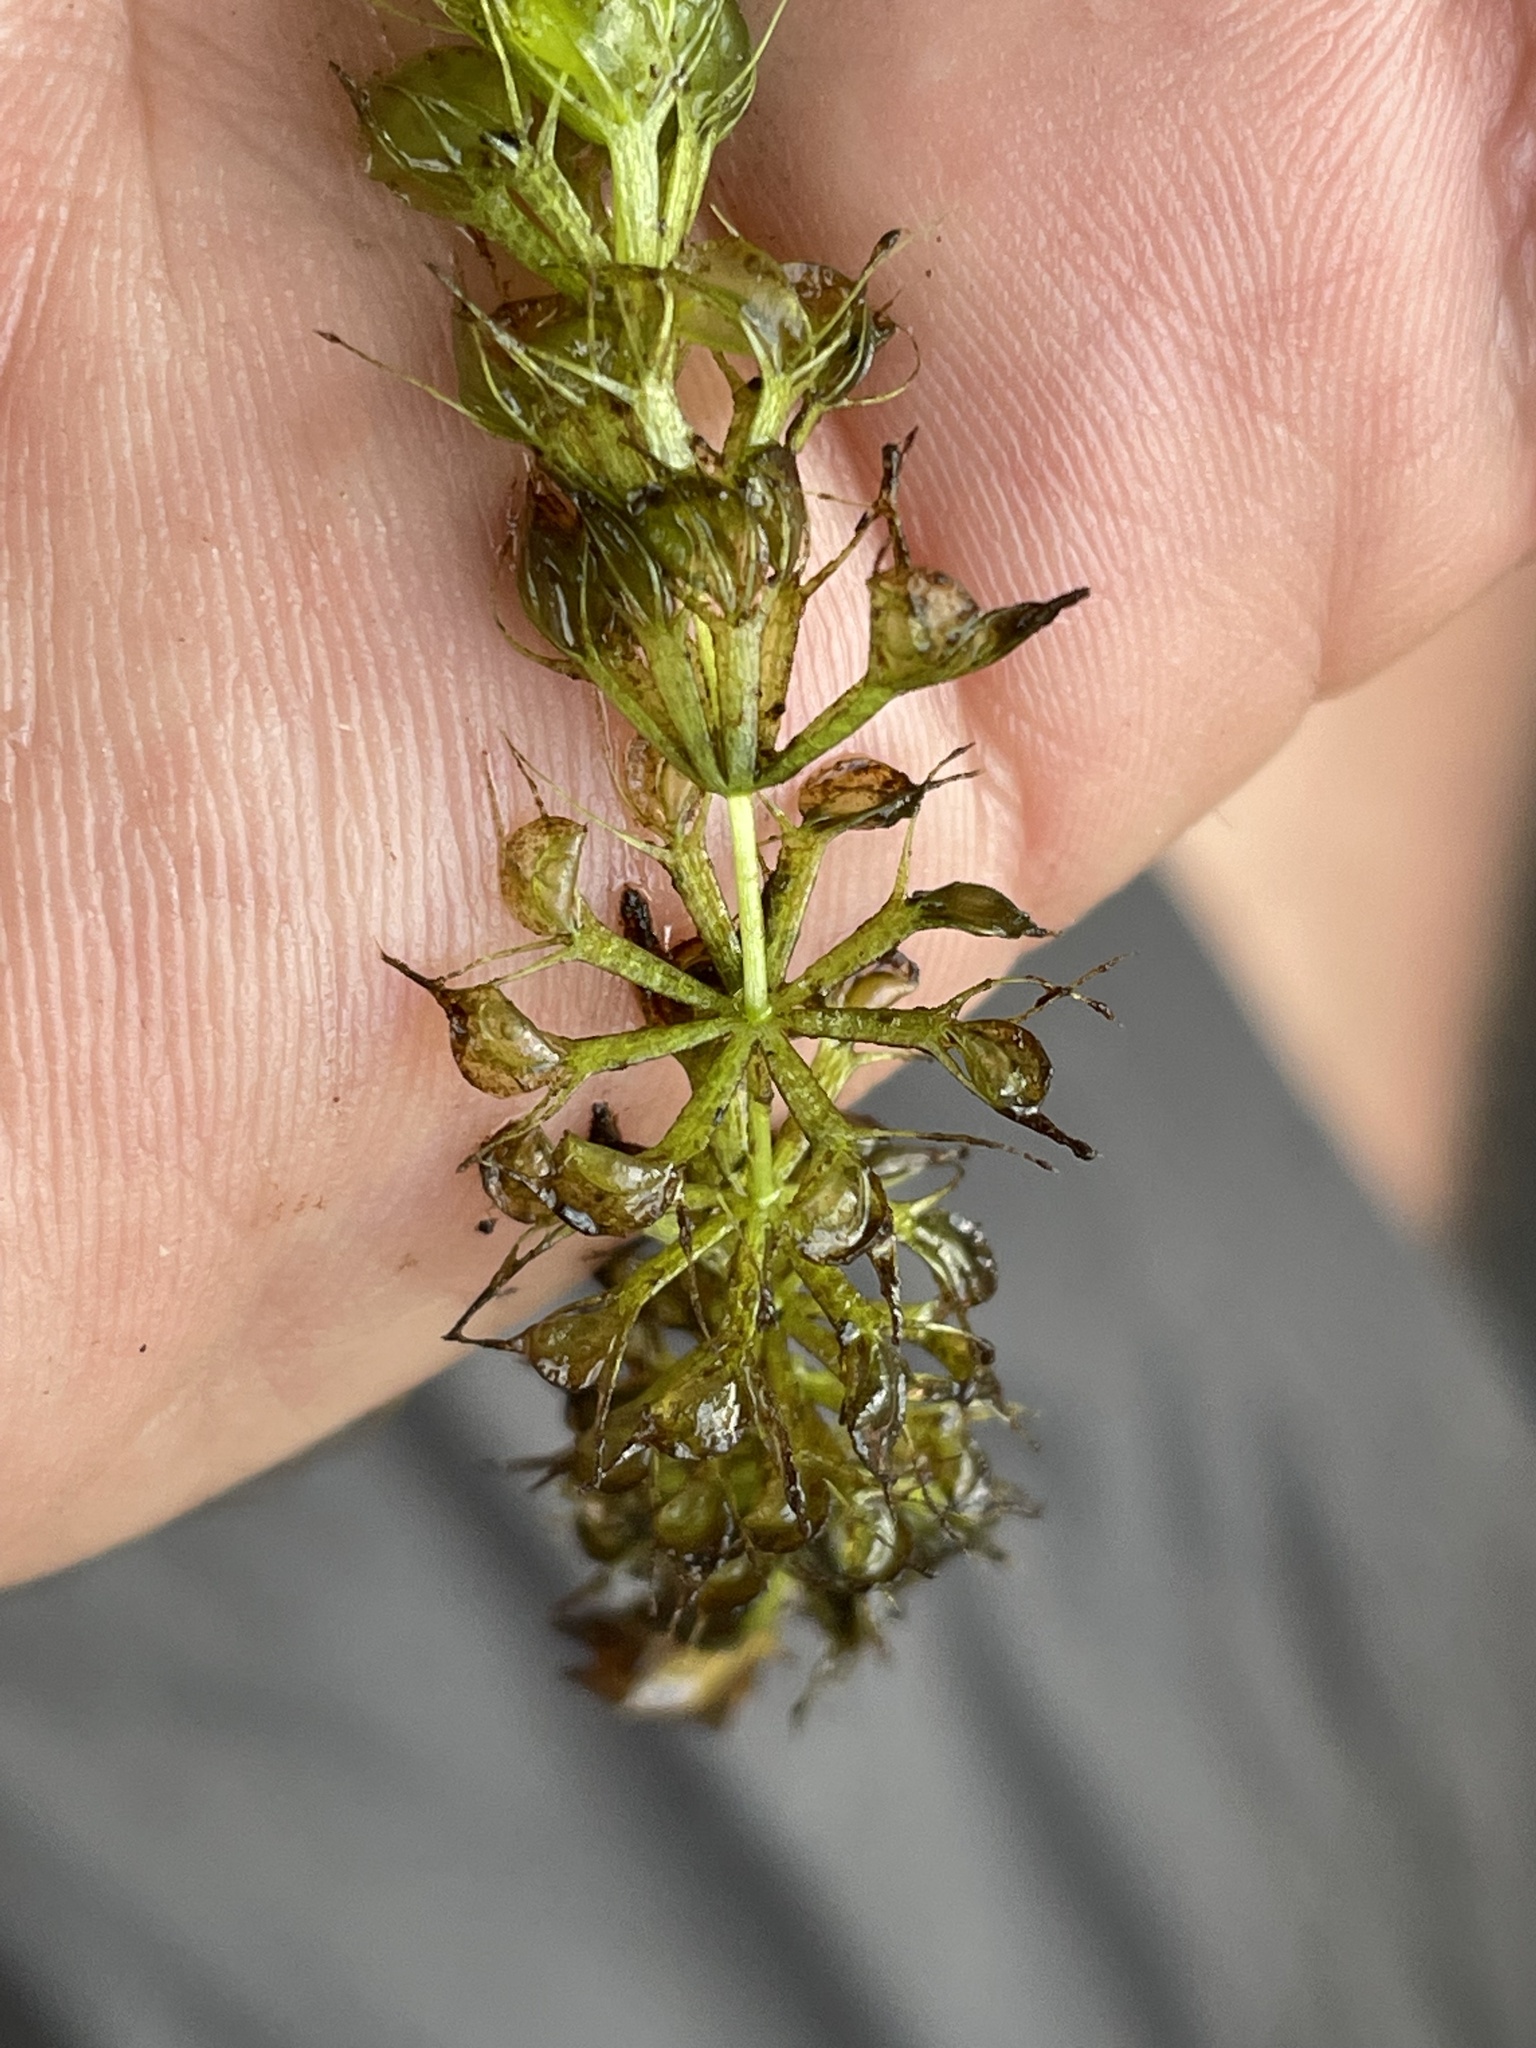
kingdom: Plantae
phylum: Tracheophyta
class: Magnoliopsida
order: Caryophyllales
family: Droseraceae
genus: Aldrovanda
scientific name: Aldrovanda vesiculosa
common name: Waterwheel plant
